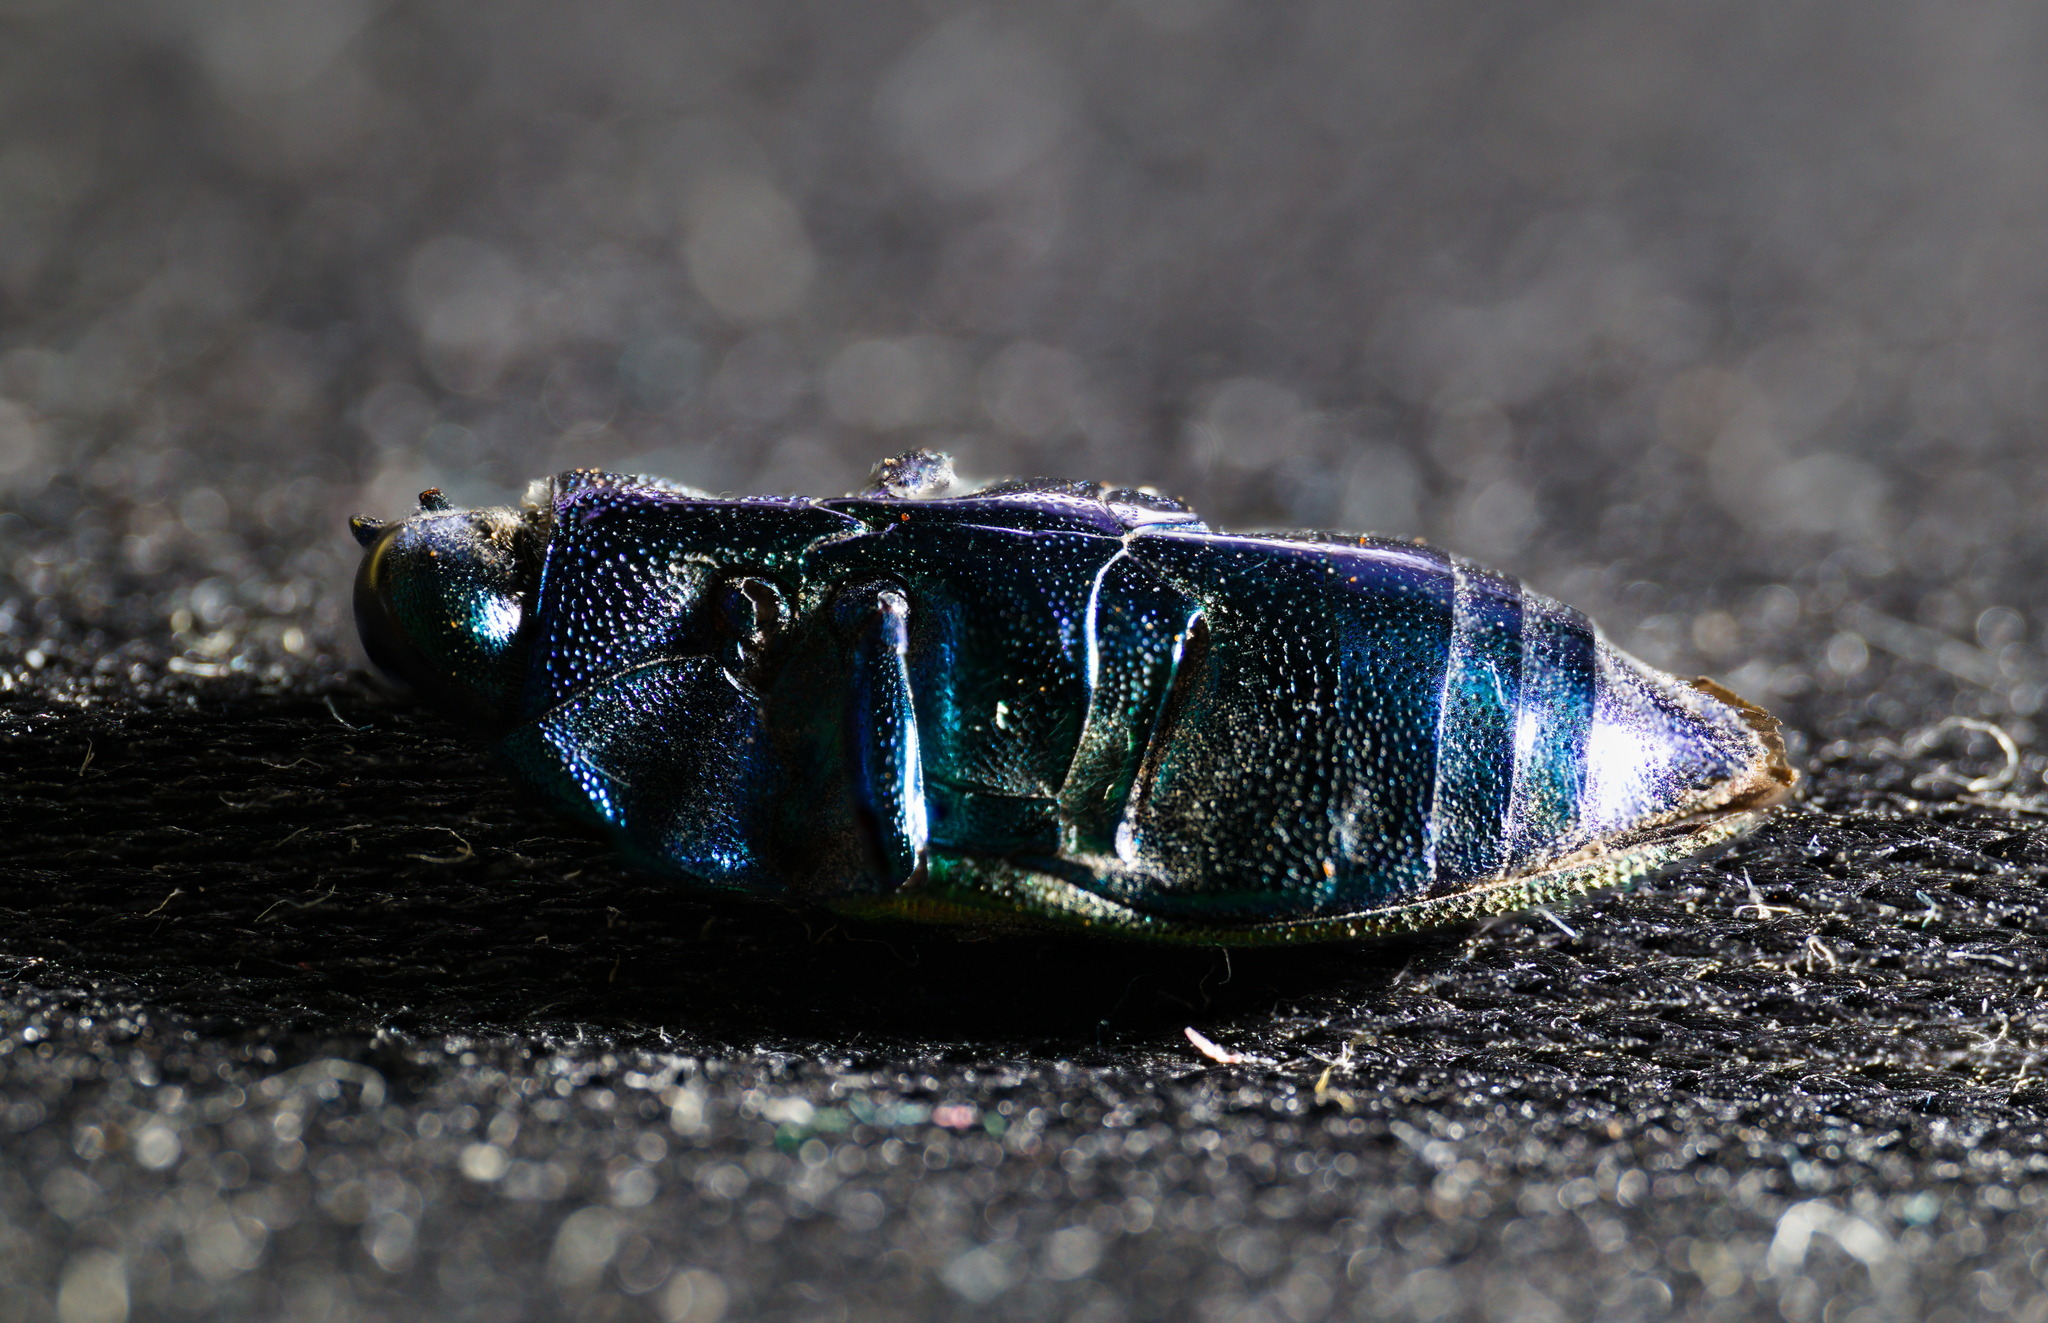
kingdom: Animalia
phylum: Arthropoda
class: Insecta
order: Coleoptera
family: Buprestidae
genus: Cylindrophora
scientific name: Cylindrophora
